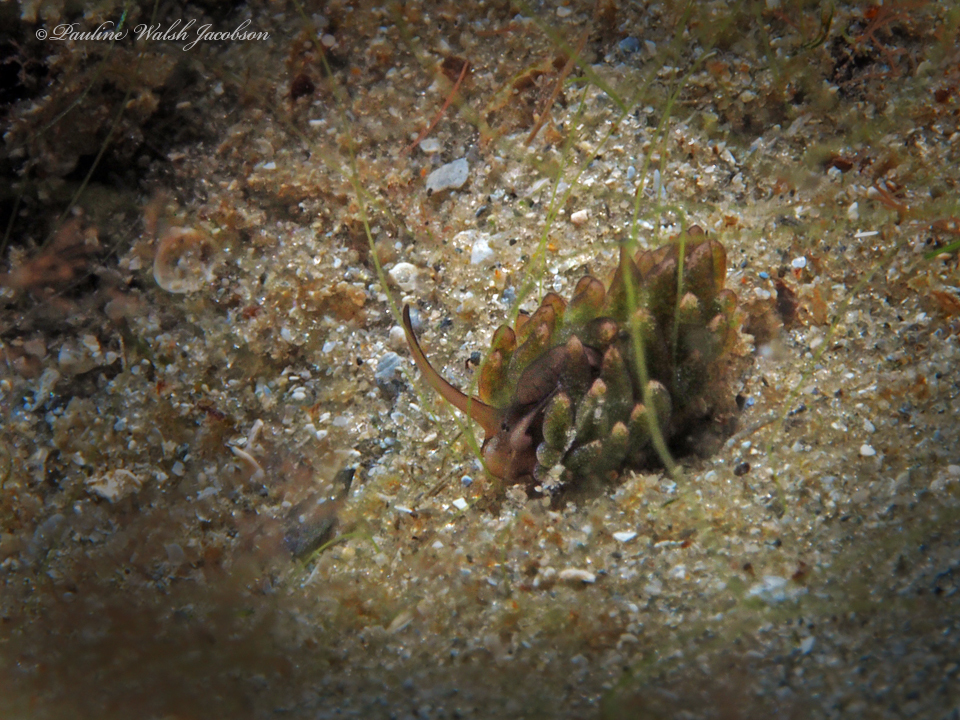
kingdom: Animalia
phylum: Mollusca
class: Gastropoda
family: Costasiellidae
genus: Costasiella
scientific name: Costasiella arenaria
